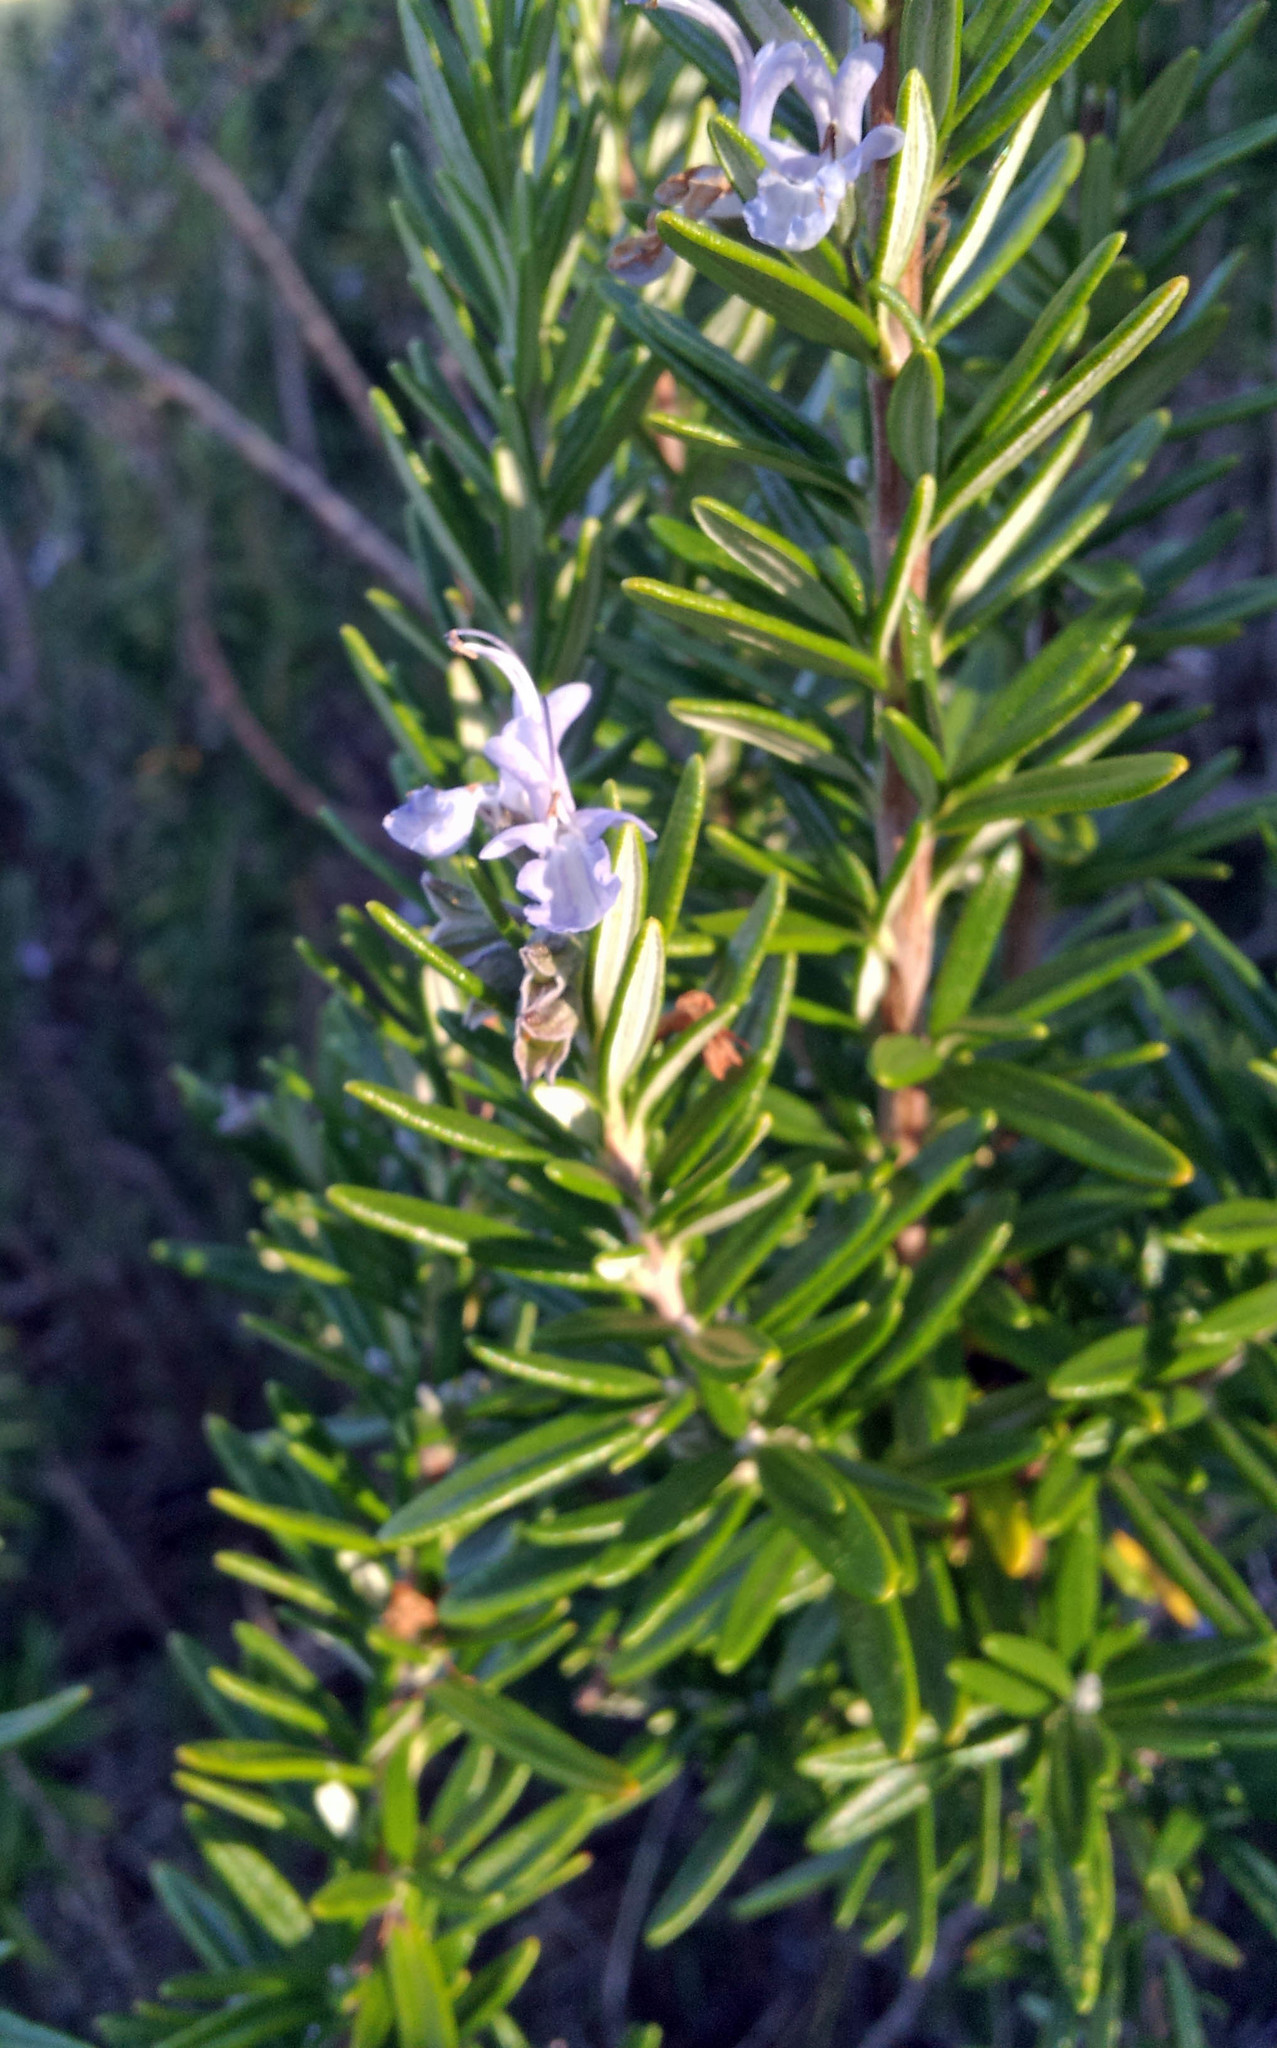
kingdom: Plantae
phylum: Tracheophyta
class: Magnoliopsida
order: Lamiales
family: Lamiaceae
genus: Salvia
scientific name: Salvia rosmarinus
